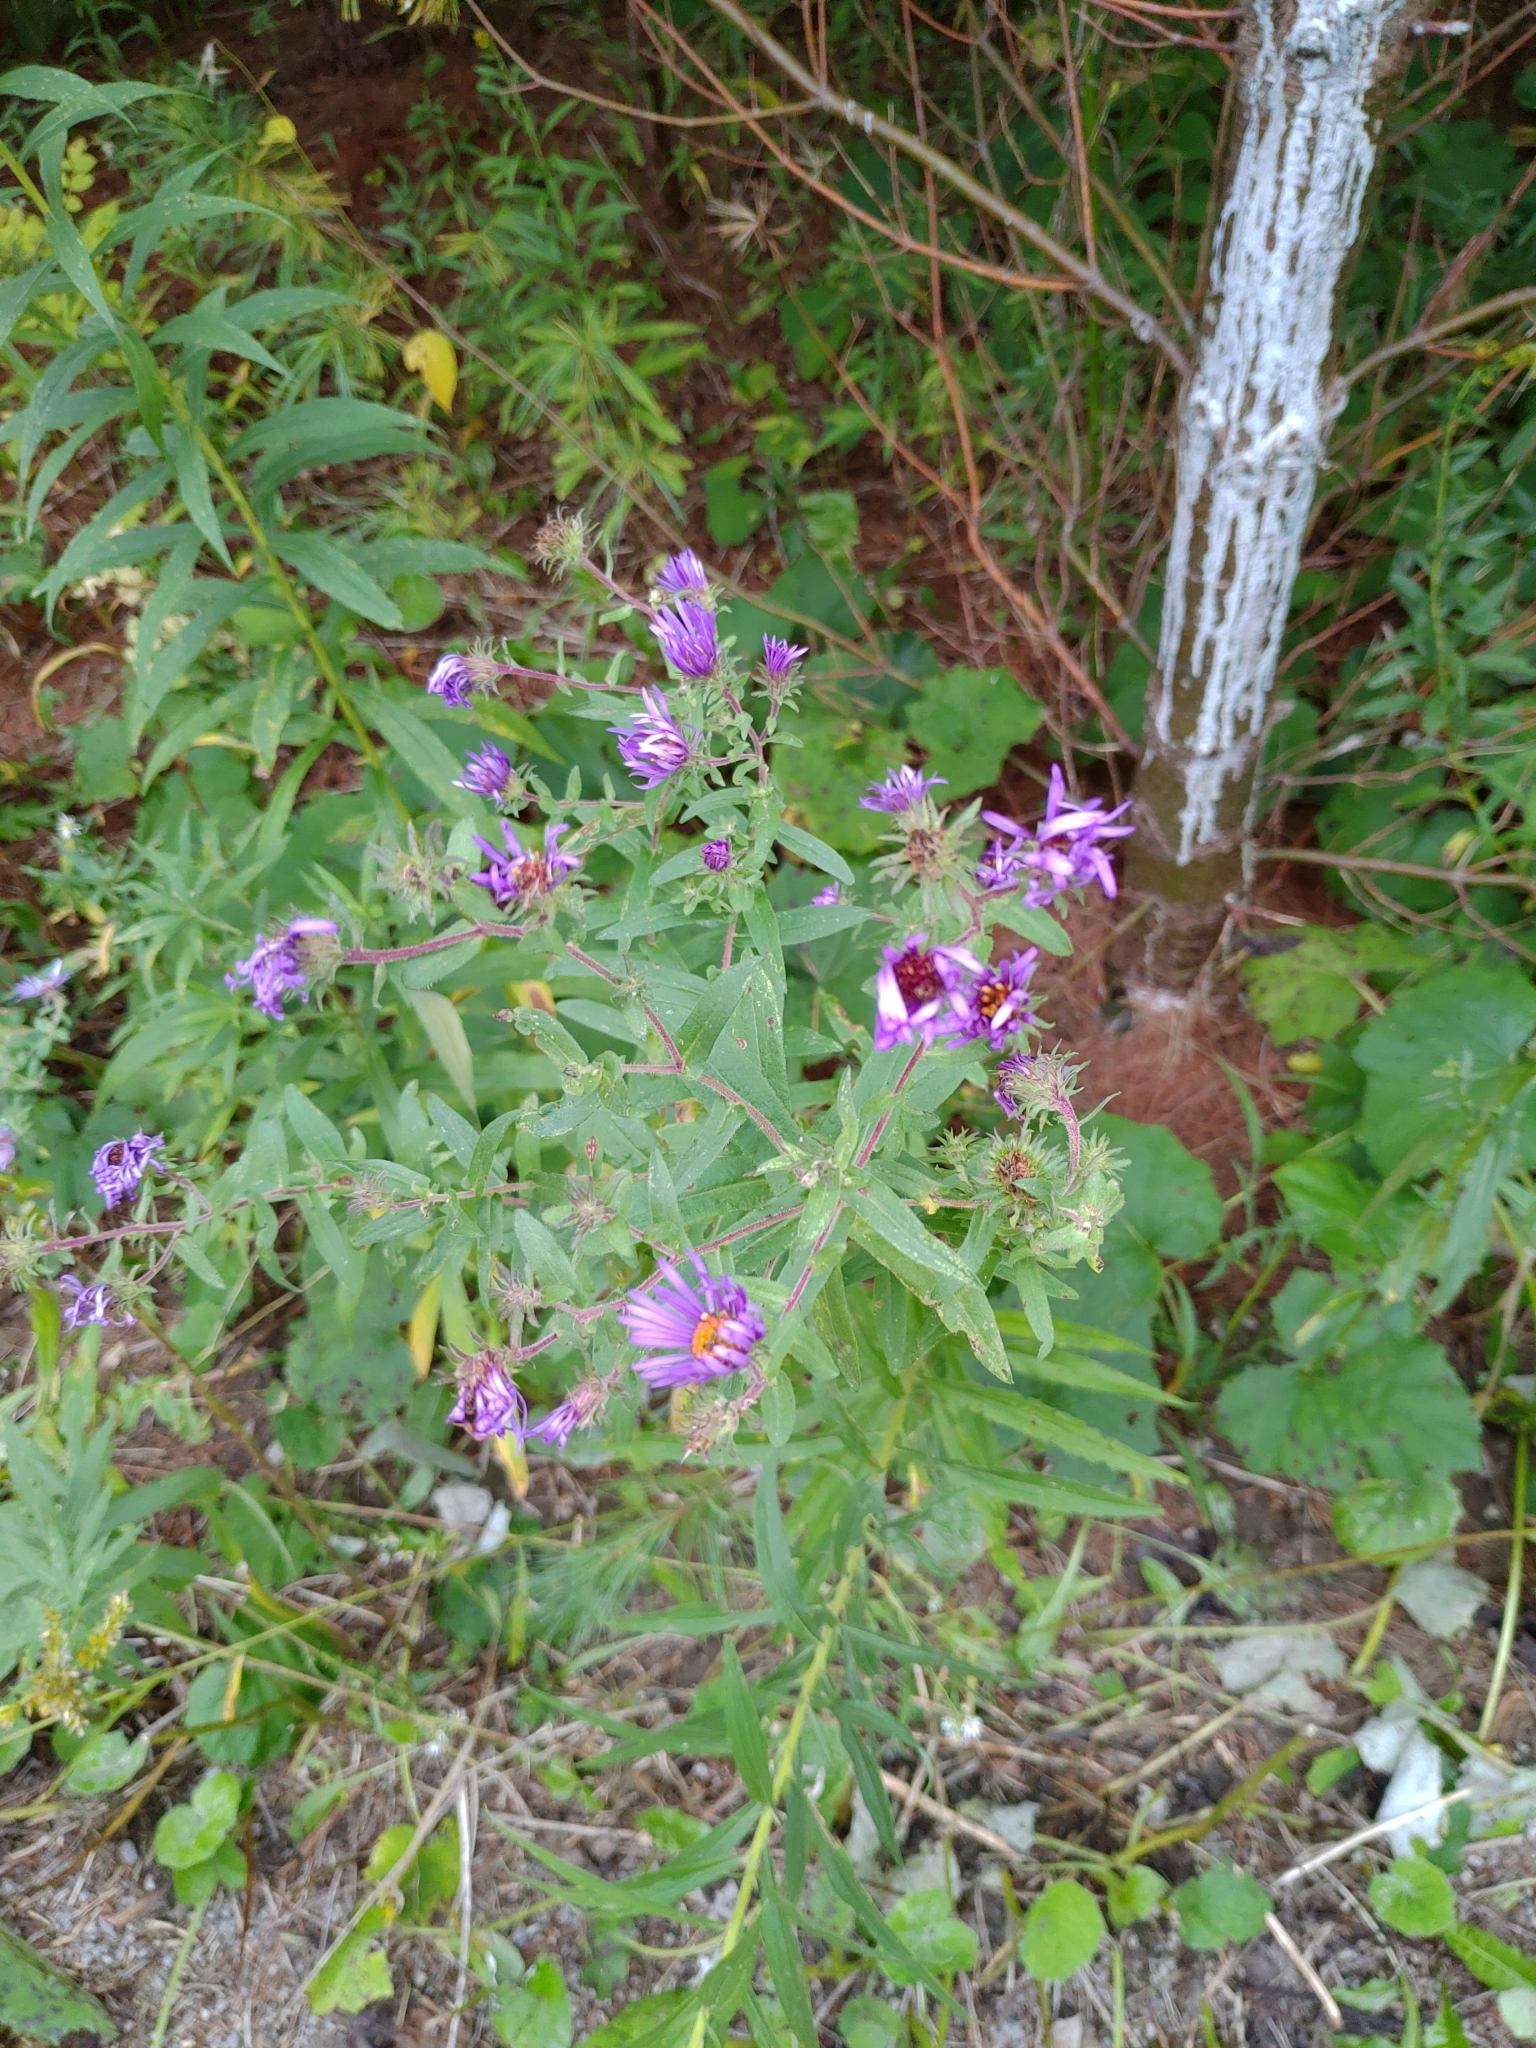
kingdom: Plantae
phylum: Tracheophyta
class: Magnoliopsida
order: Asterales
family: Asteraceae
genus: Symphyotrichum
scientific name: Symphyotrichum novae-angliae
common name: Michaelmas daisy
